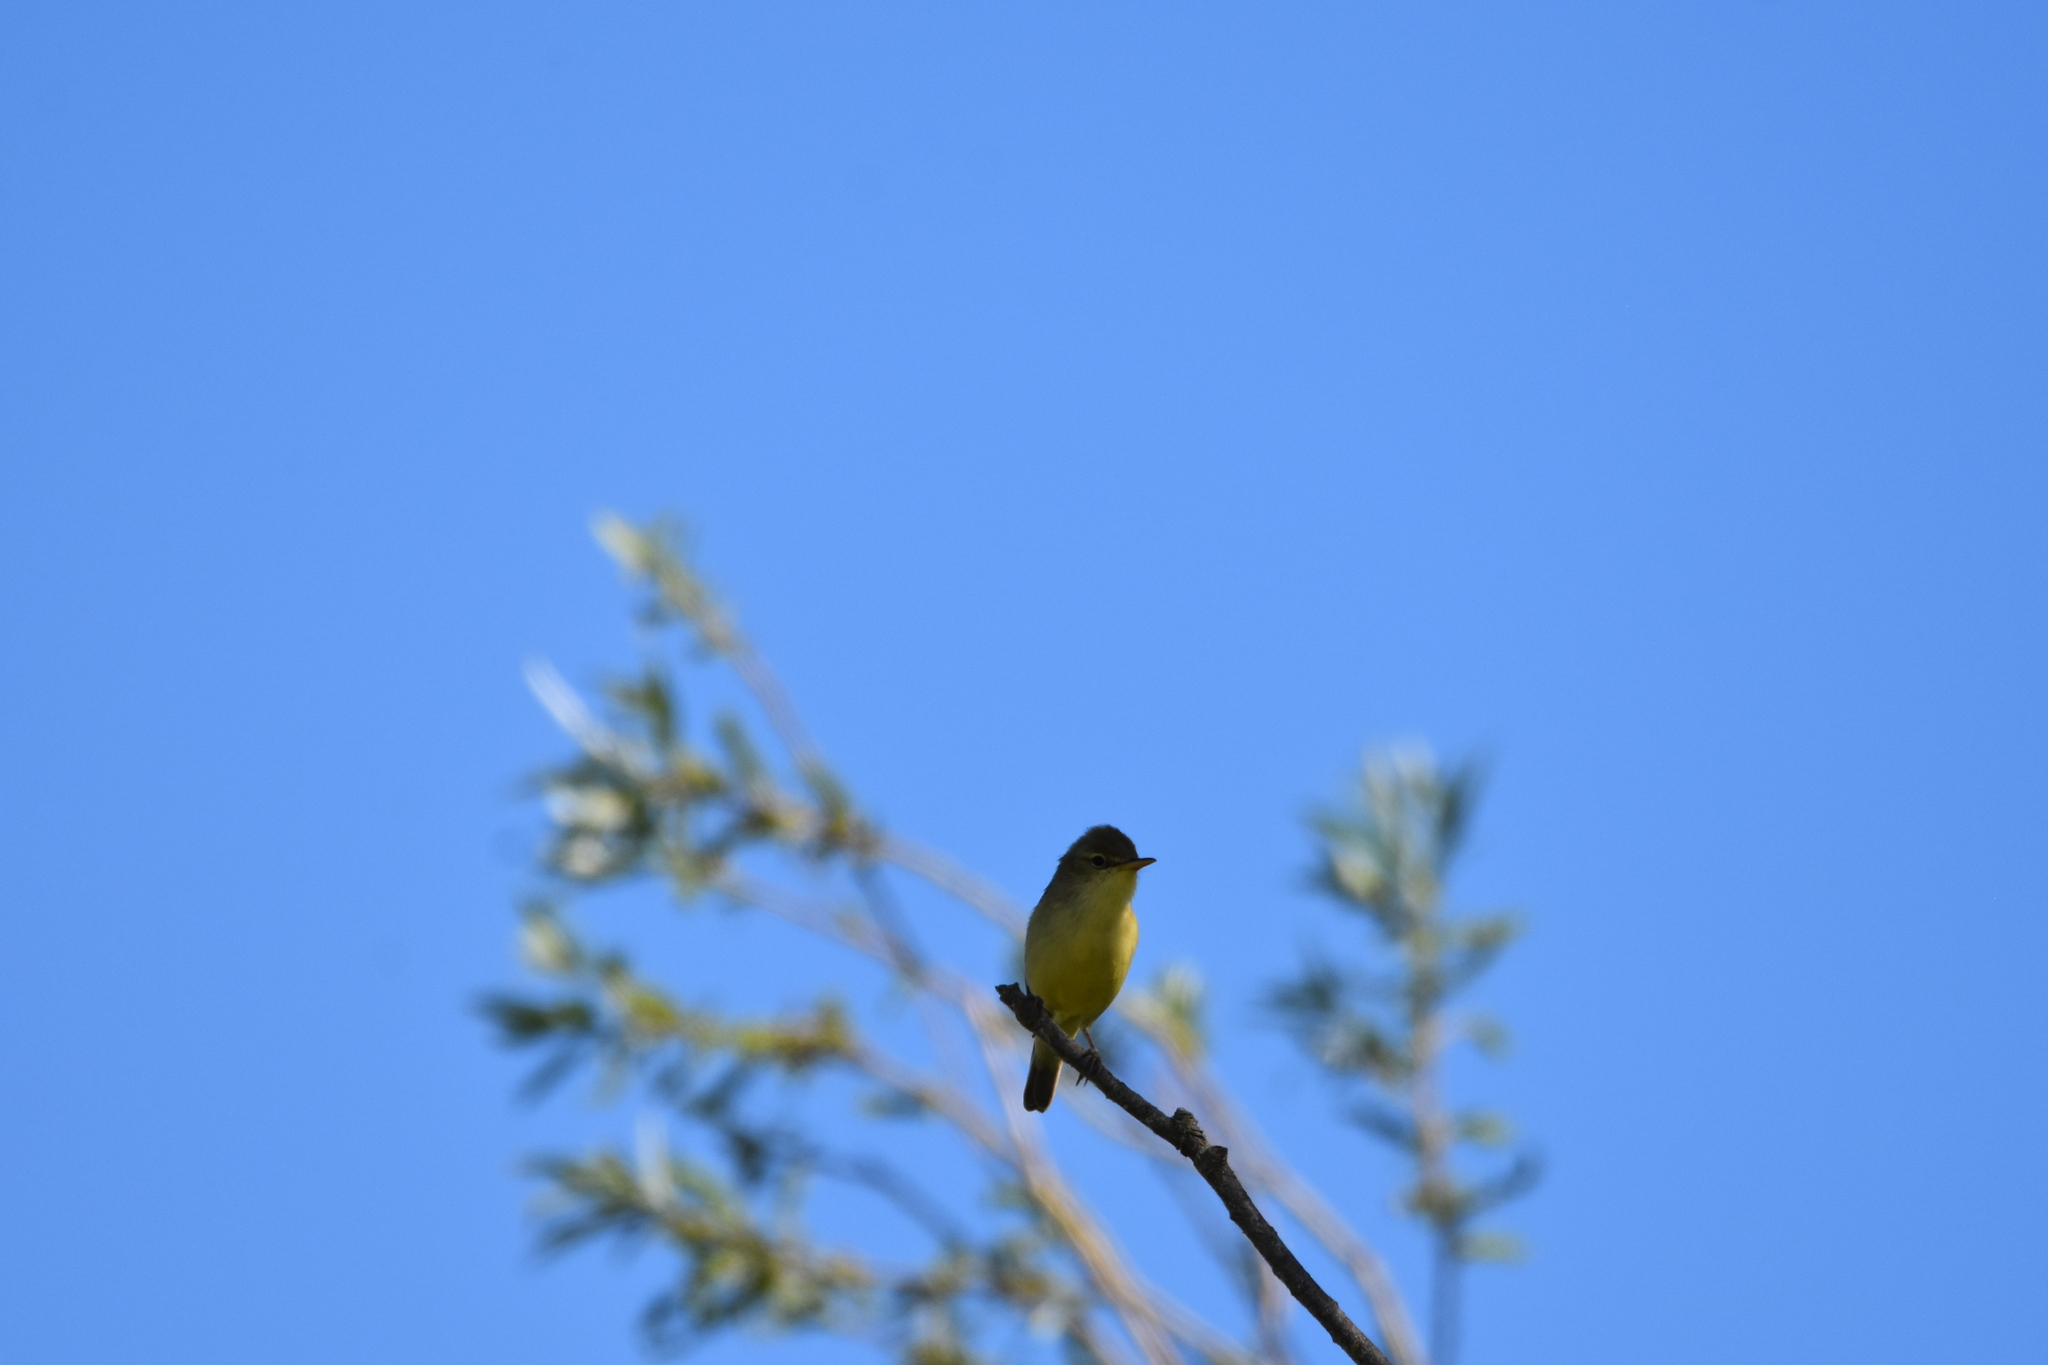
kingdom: Animalia
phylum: Chordata
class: Aves
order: Passeriformes
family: Acrocephalidae
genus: Hippolais
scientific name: Hippolais polyglotta
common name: Melodious warbler
